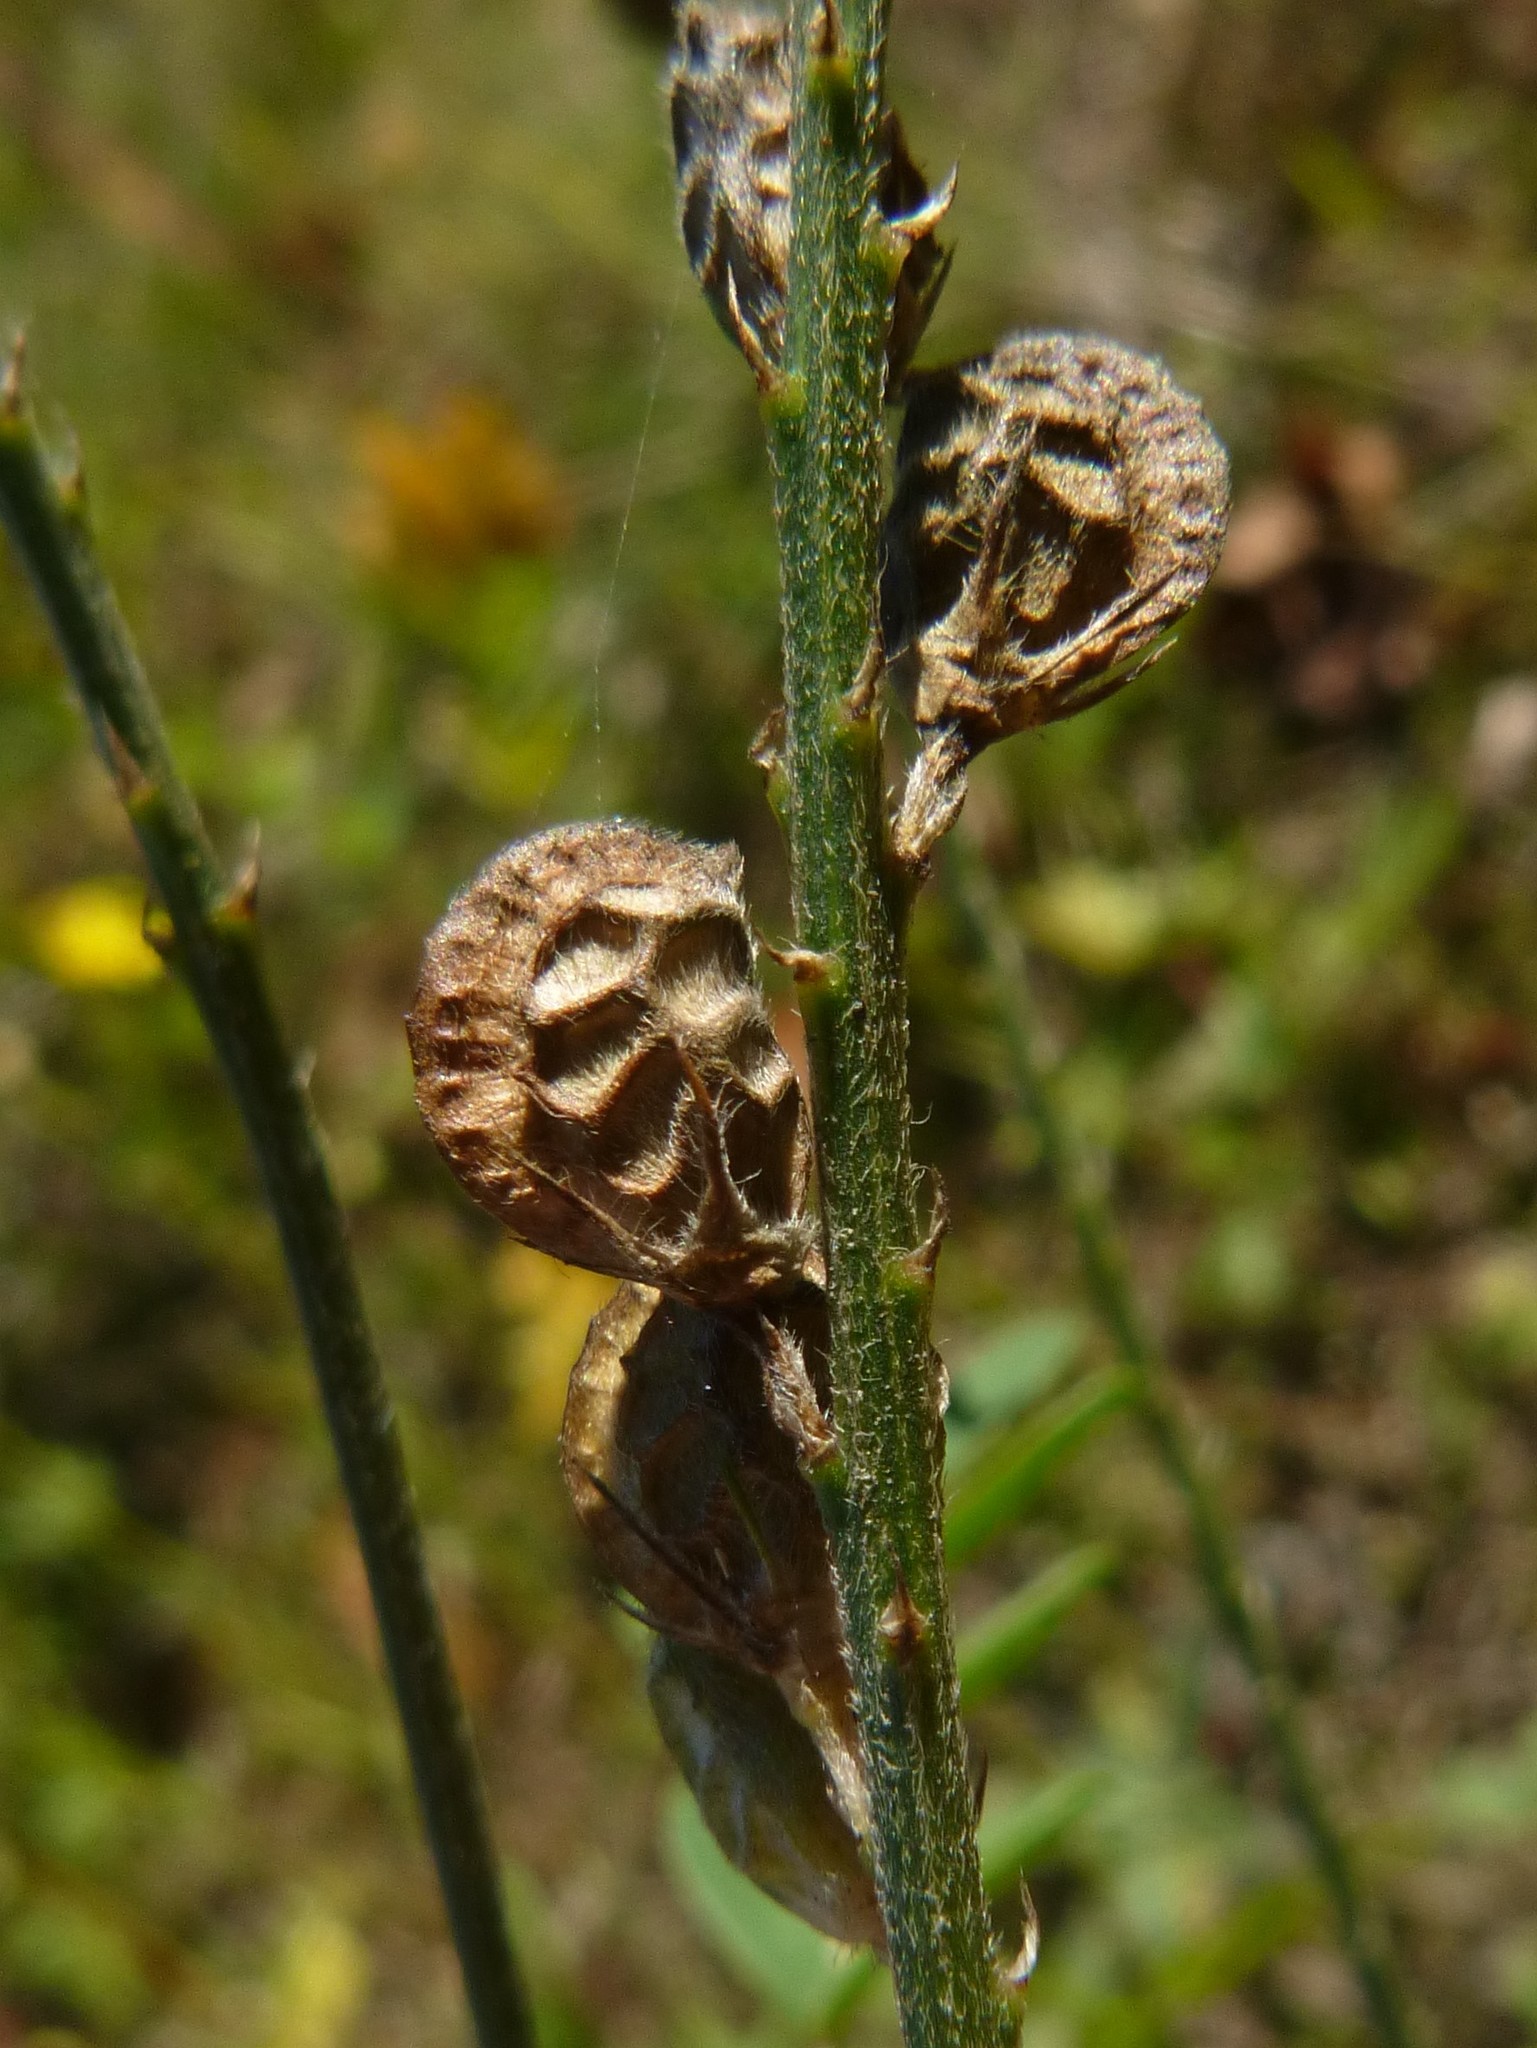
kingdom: Plantae
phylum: Tracheophyta
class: Magnoliopsida
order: Fabales
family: Fabaceae
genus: Onobrychis
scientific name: Onobrychis viciifolia
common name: Sainfoin
